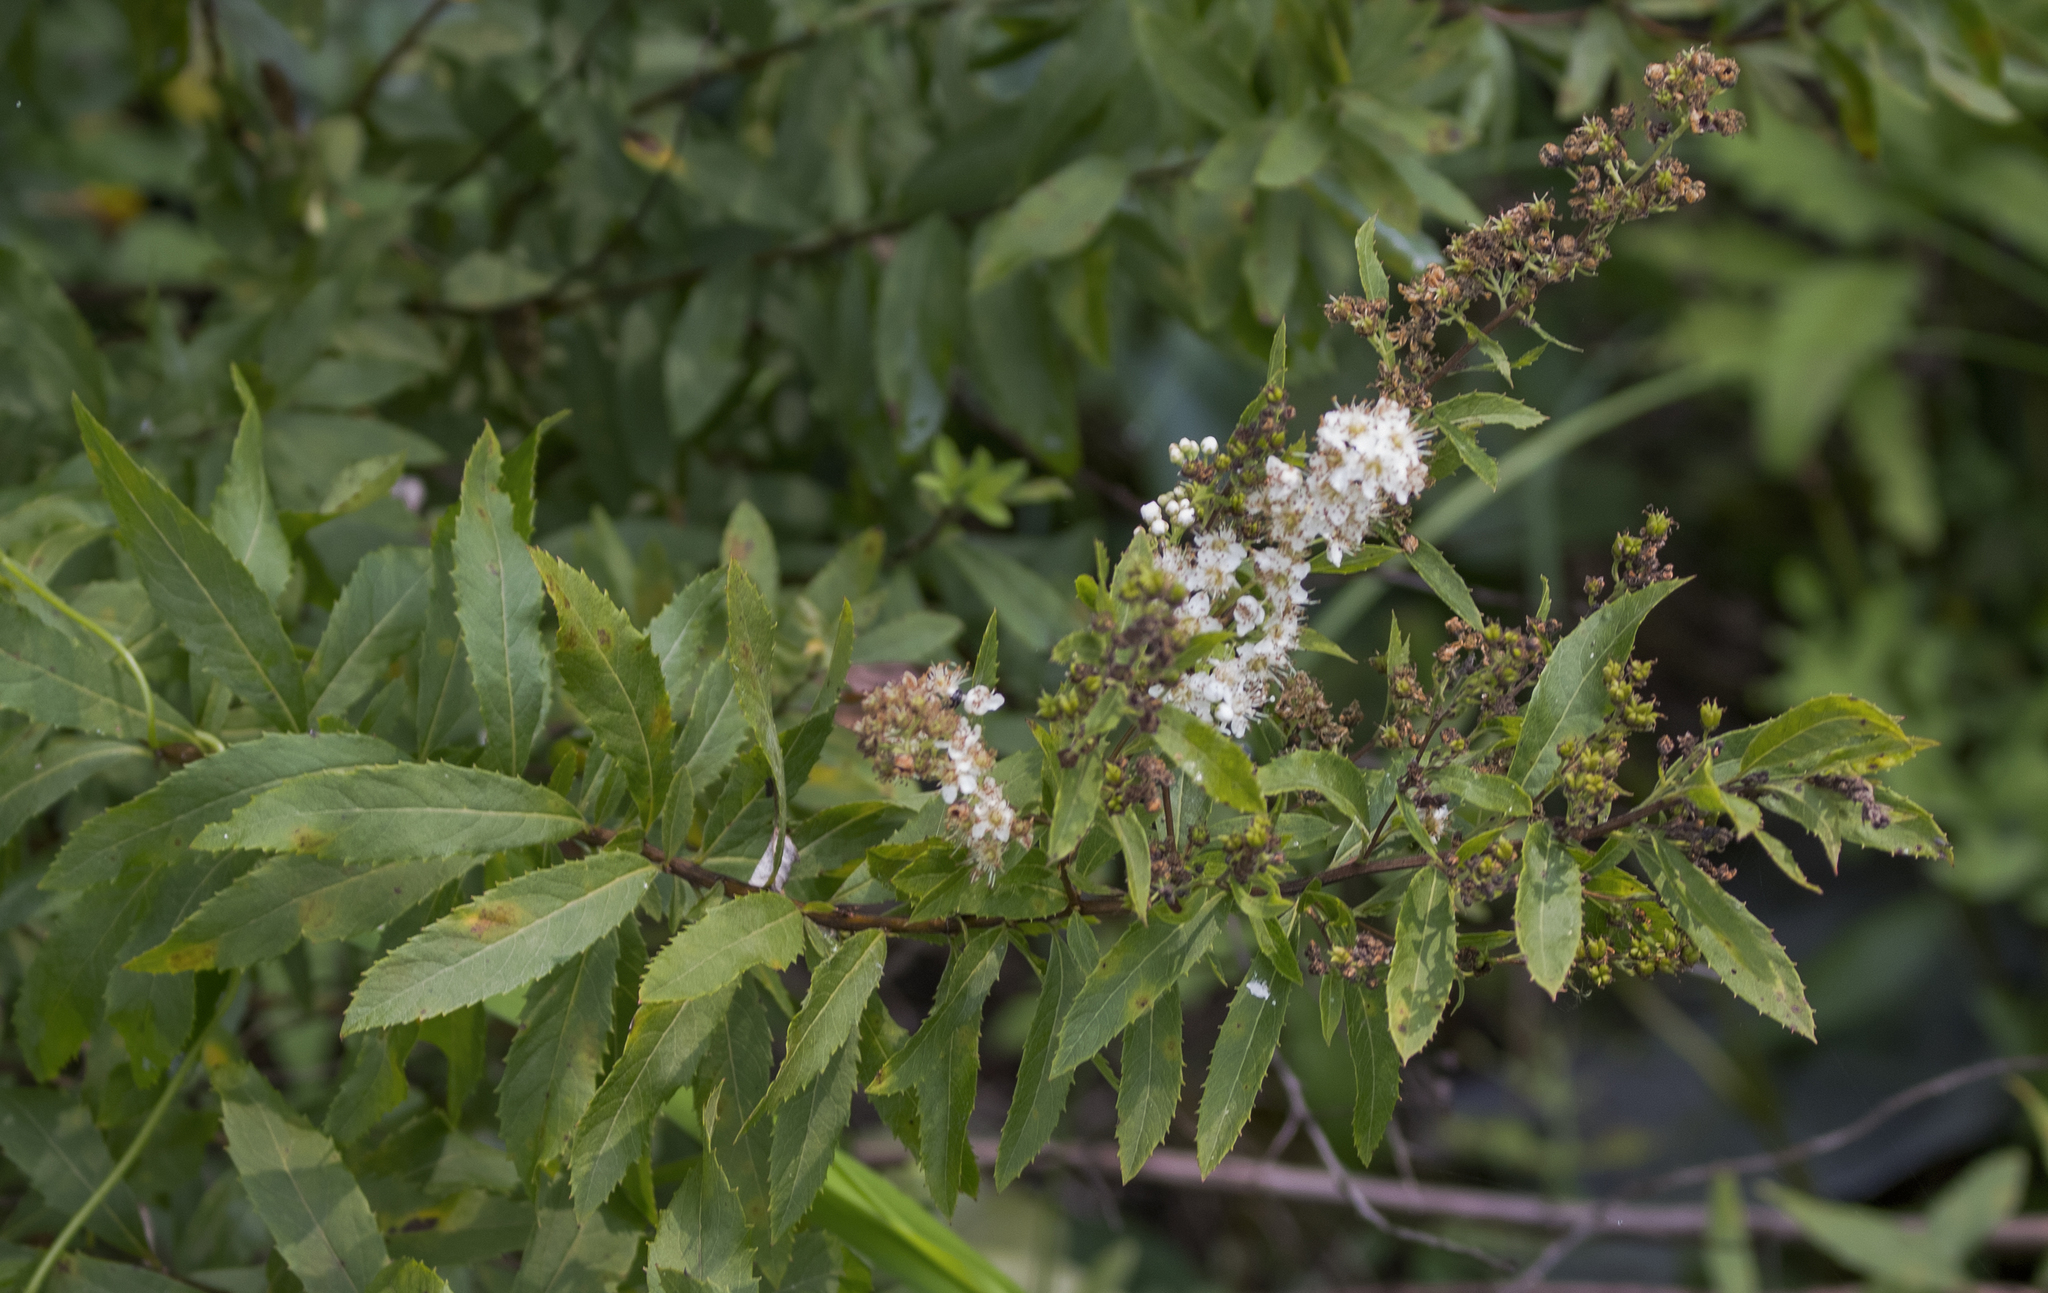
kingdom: Plantae
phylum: Tracheophyta
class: Magnoliopsida
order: Rosales
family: Rosaceae
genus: Spiraea
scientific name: Spiraea alba
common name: Pale bridewort
